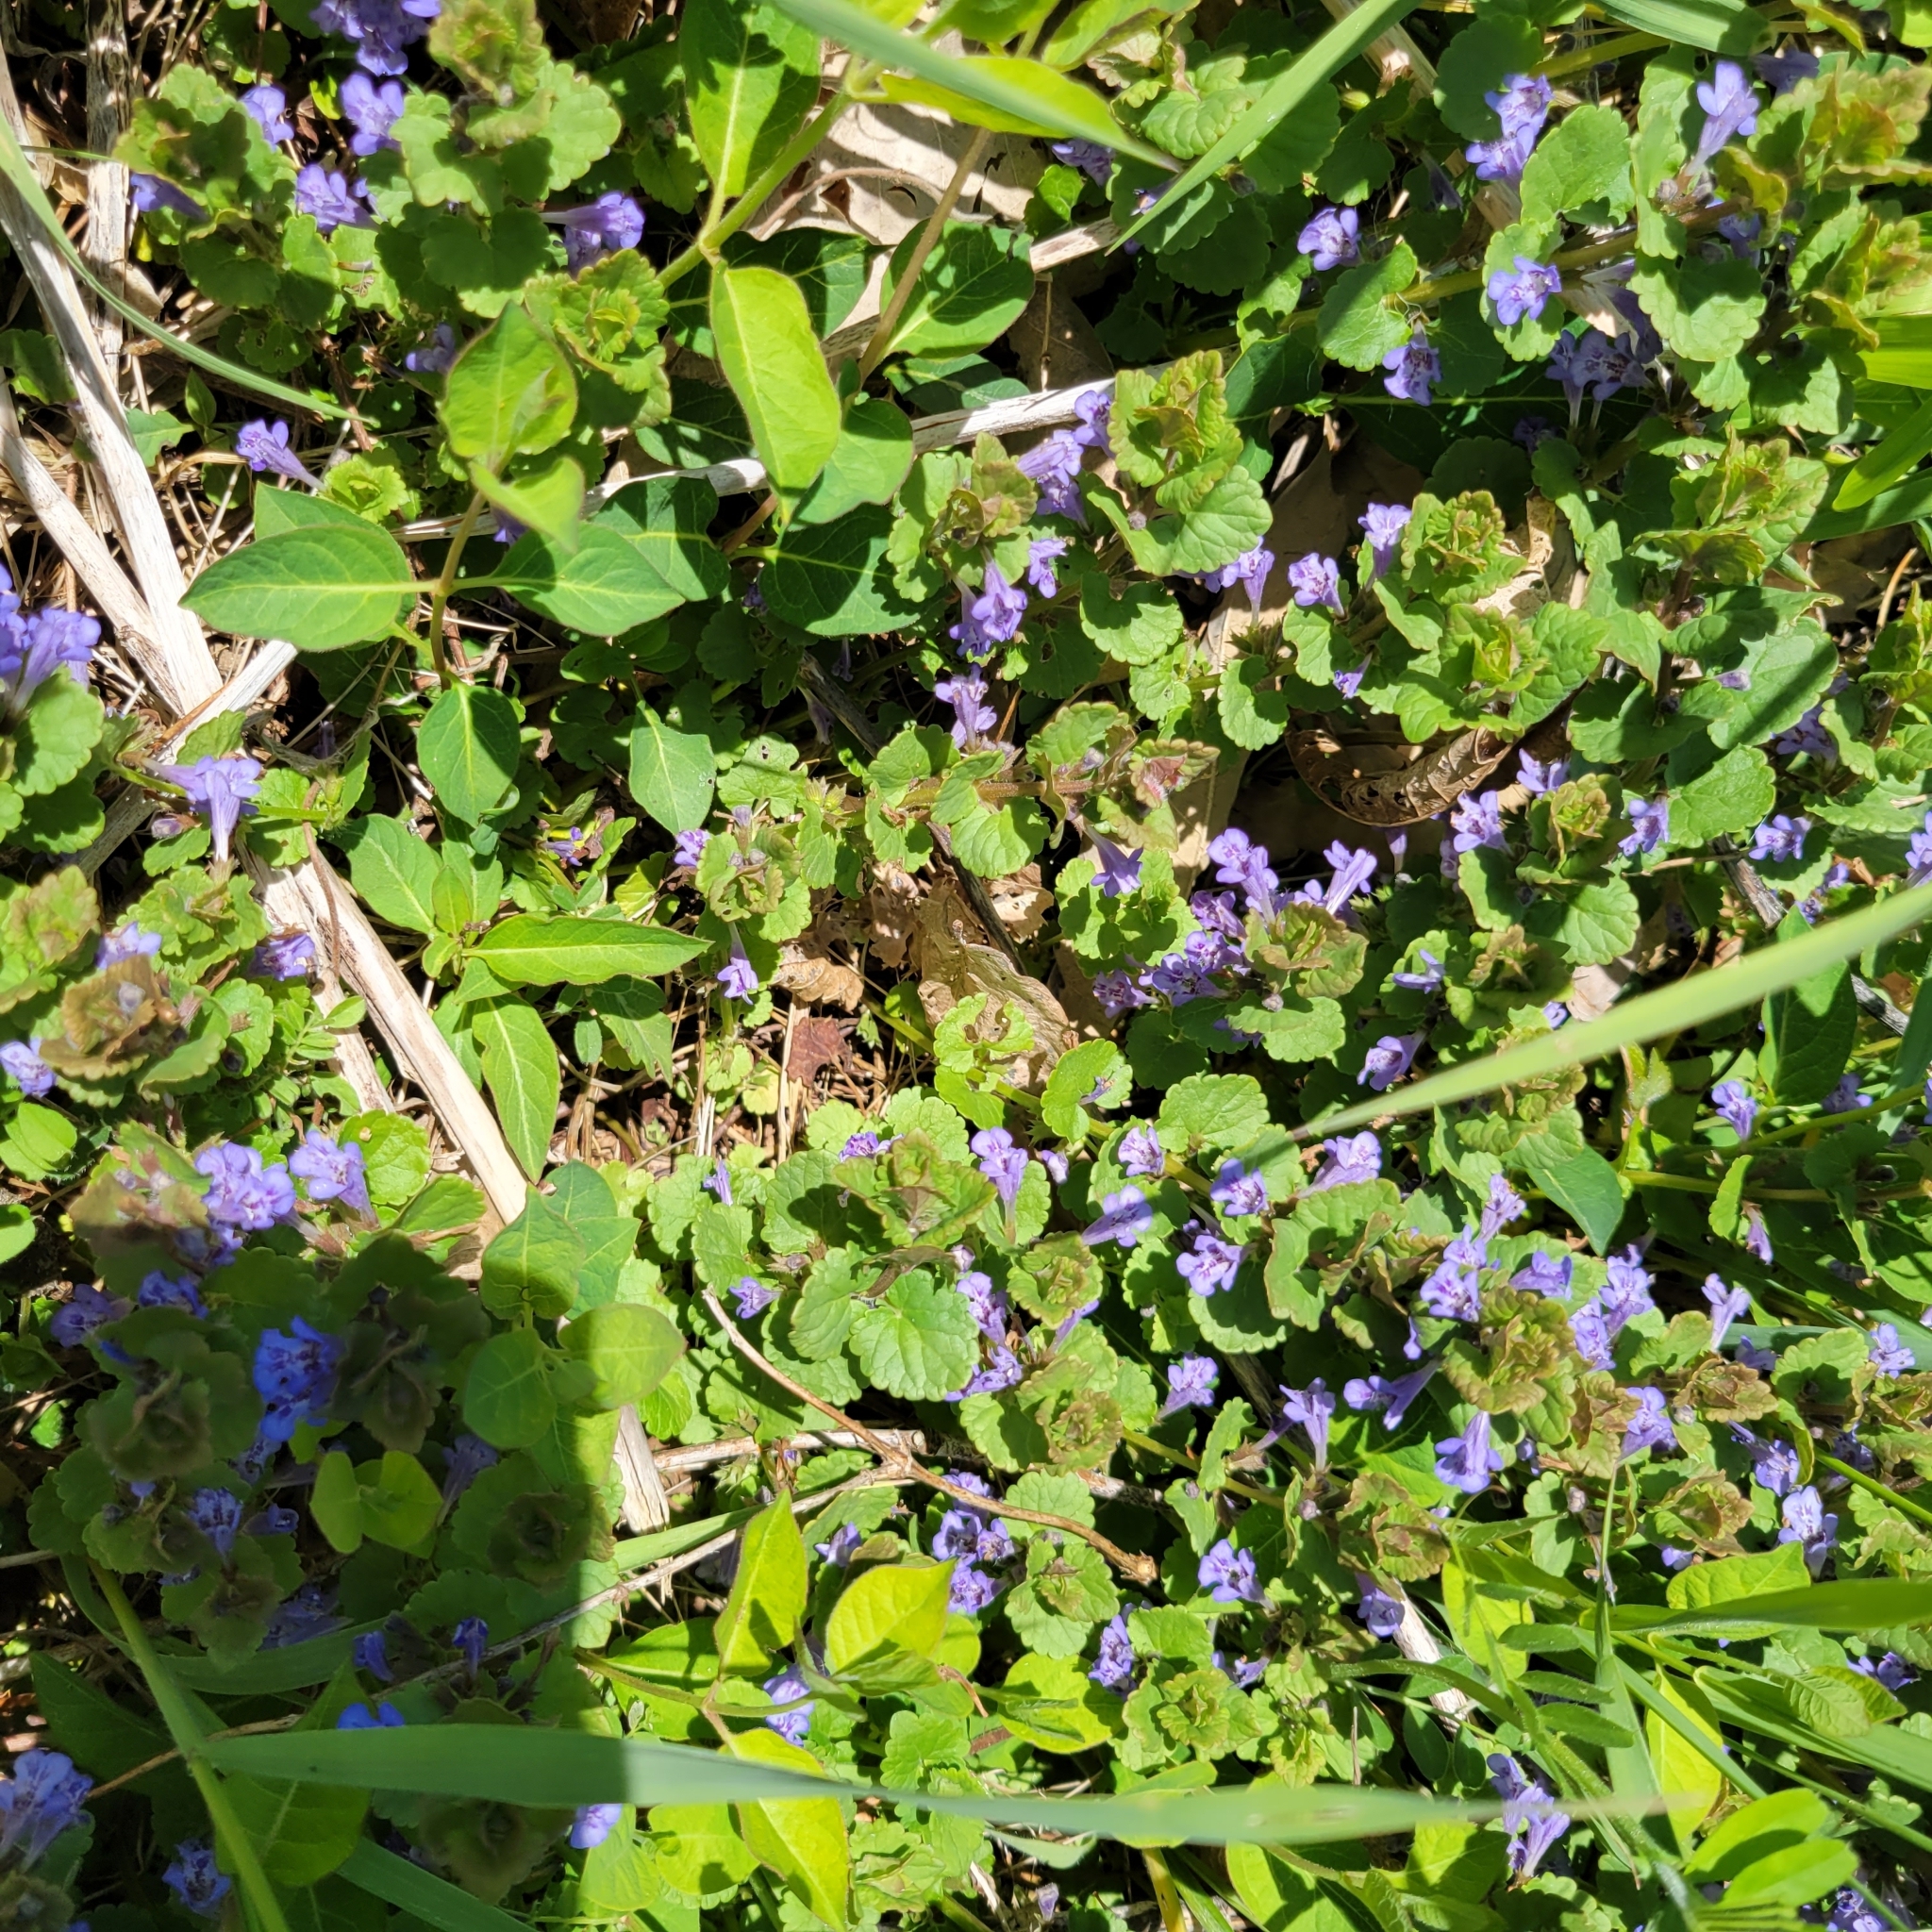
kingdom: Plantae
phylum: Tracheophyta
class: Magnoliopsida
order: Lamiales
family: Lamiaceae
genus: Glechoma
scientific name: Glechoma hederacea
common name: Ground ivy
